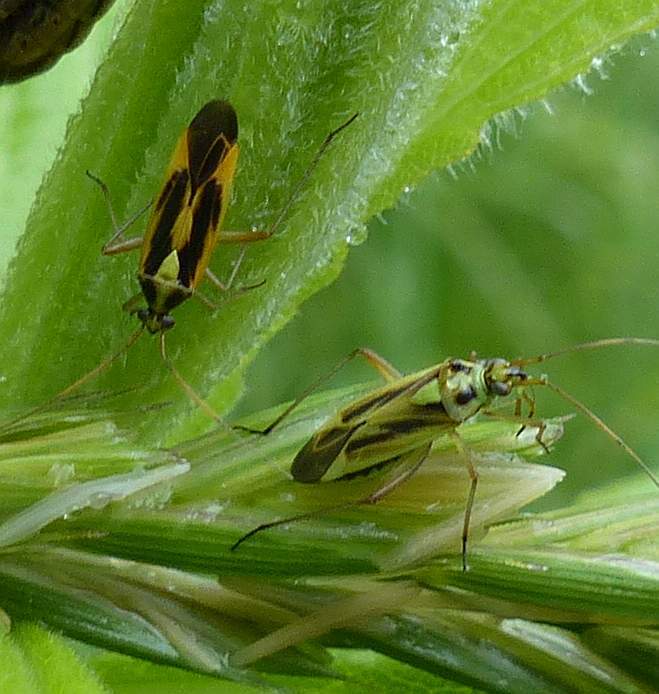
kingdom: Animalia
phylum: Arthropoda
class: Insecta
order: Hemiptera
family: Miridae
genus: Stenotus
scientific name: Stenotus binotatus
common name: Plant bug
